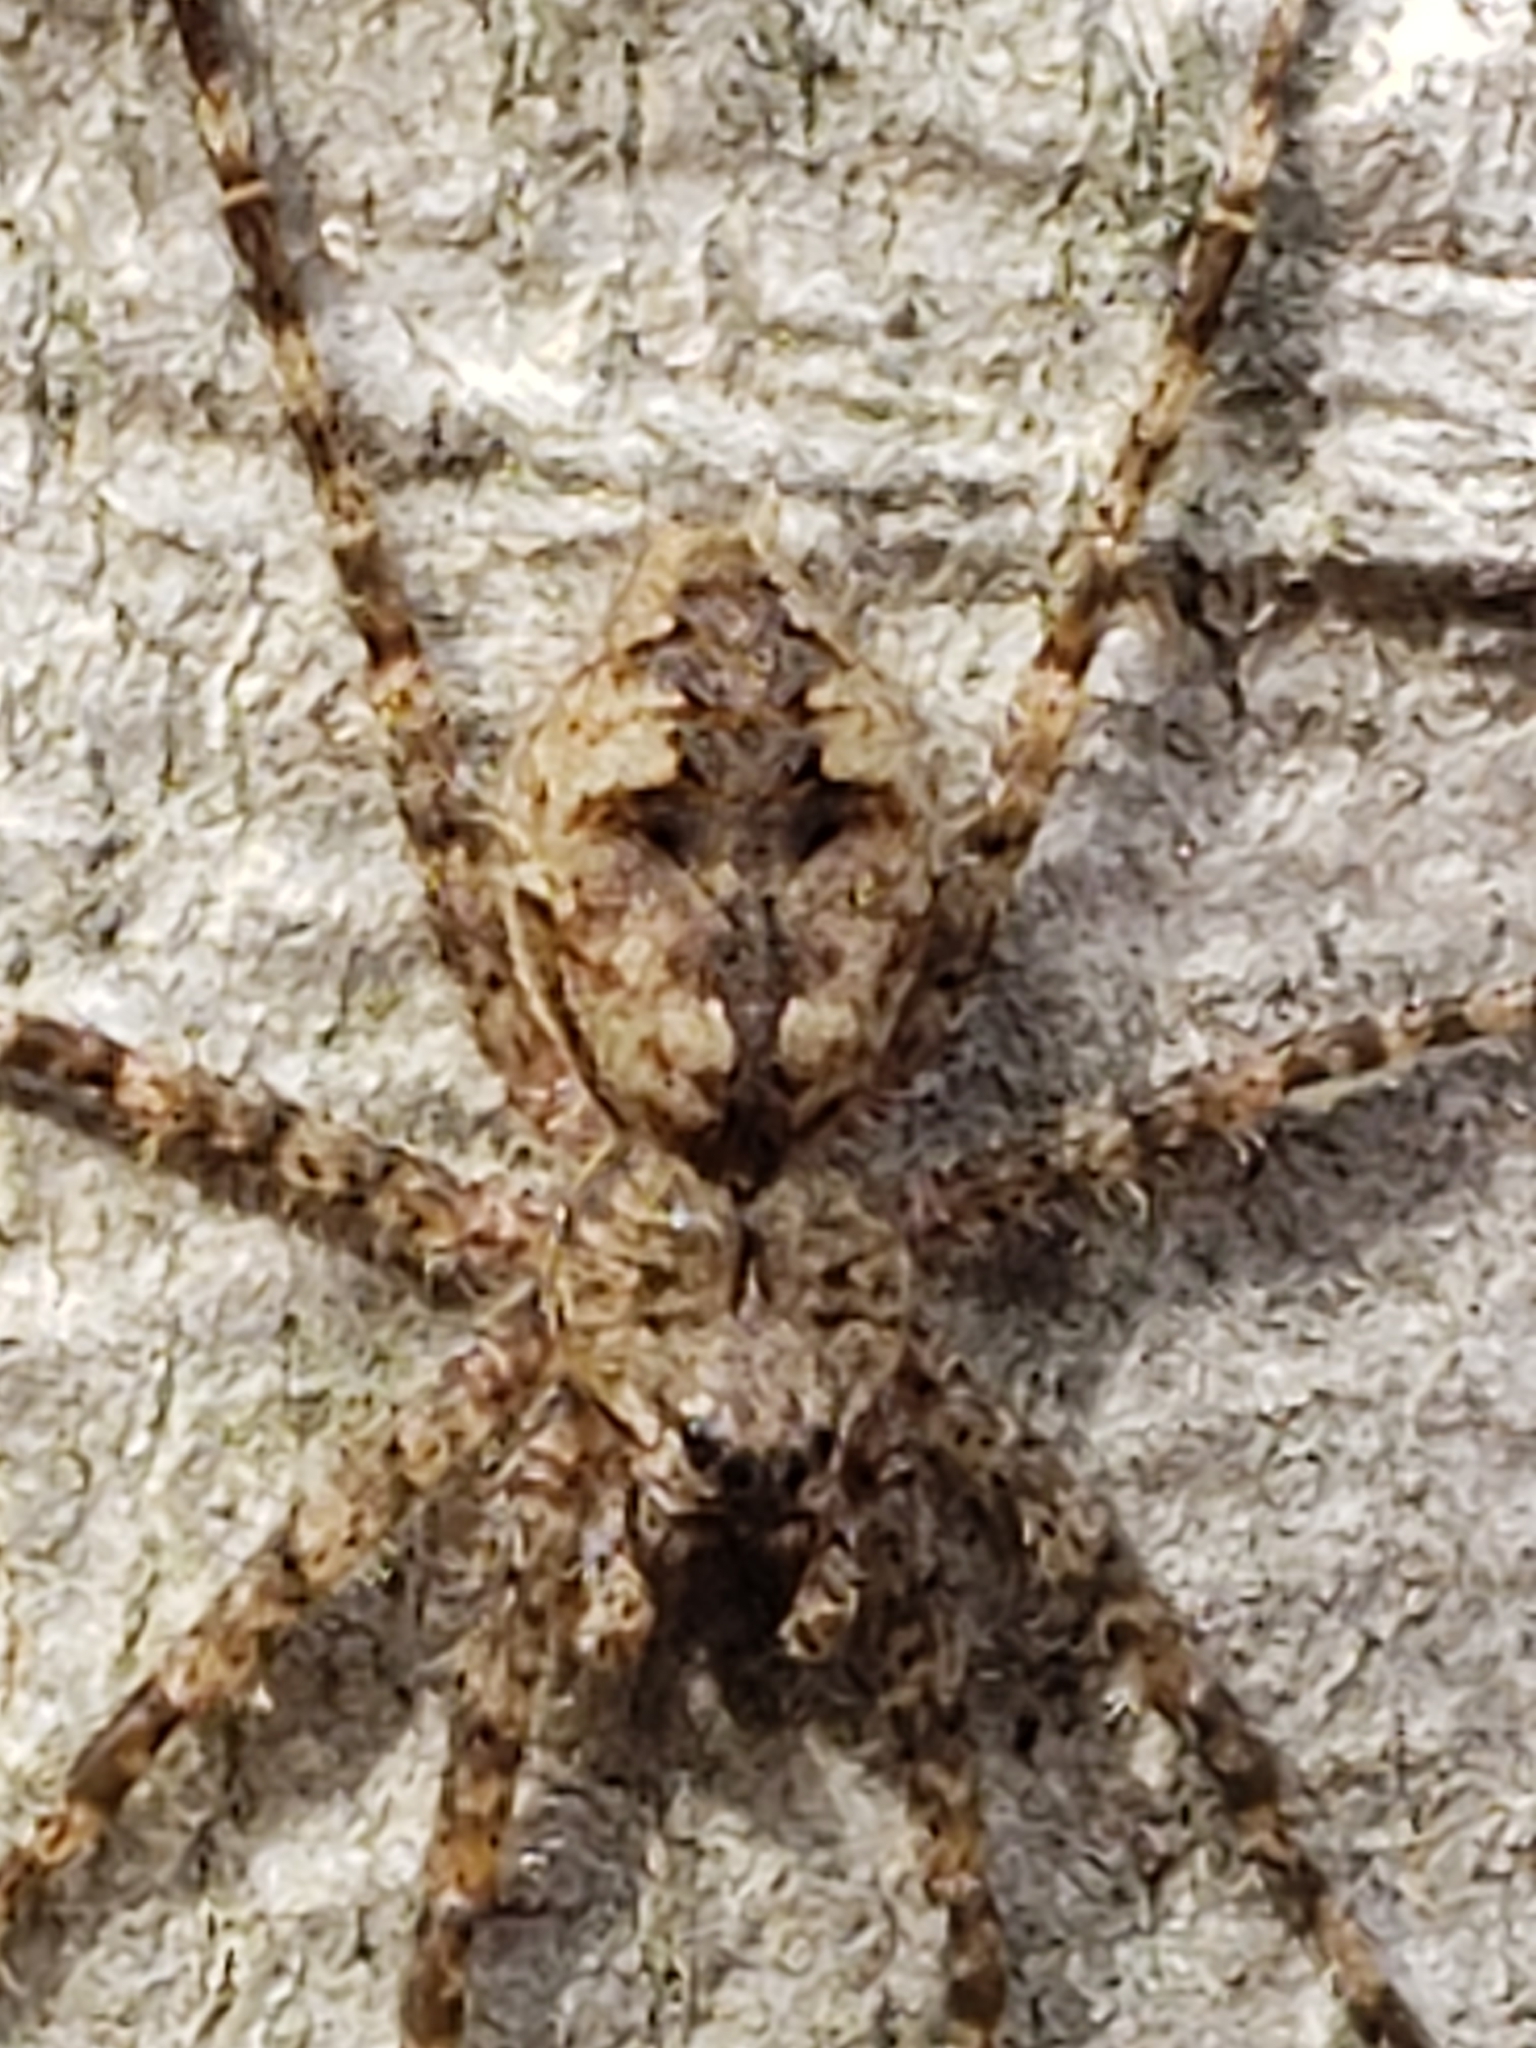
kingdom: Animalia
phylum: Arthropoda
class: Arachnida
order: Araneae
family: Pisauridae
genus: Dolomedes
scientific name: Dolomedes albineus
